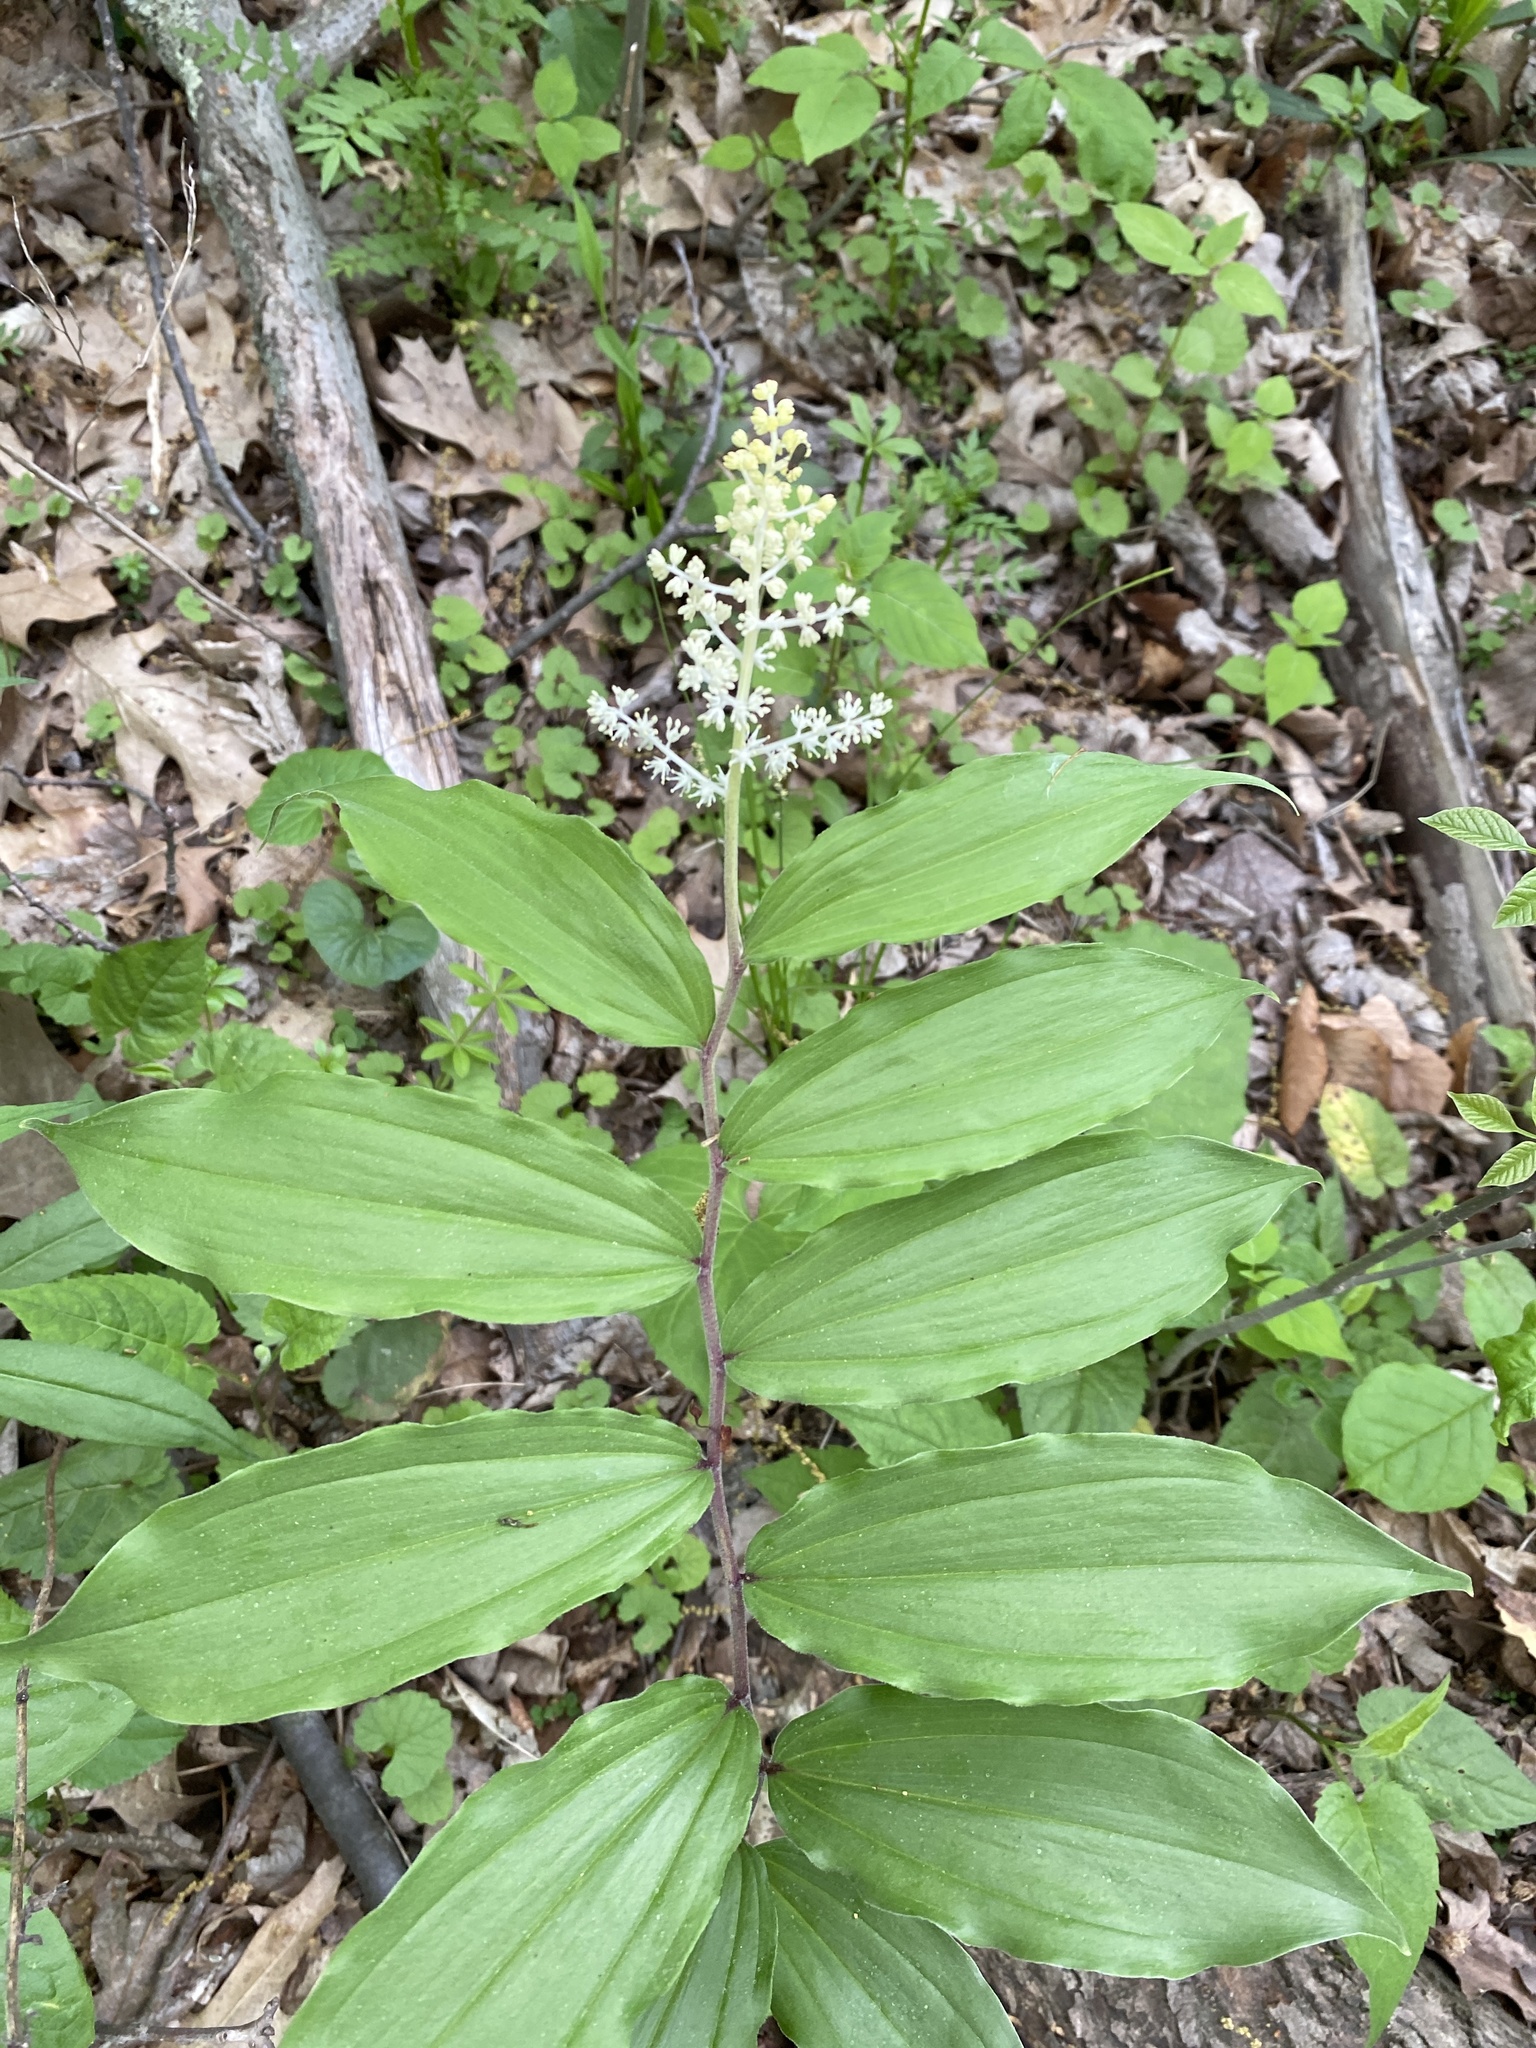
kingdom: Plantae
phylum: Tracheophyta
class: Liliopsida
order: Asparagales
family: Asparagaceae
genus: Maianthemum
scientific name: Maianthemum racemosum
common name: False spikenard
